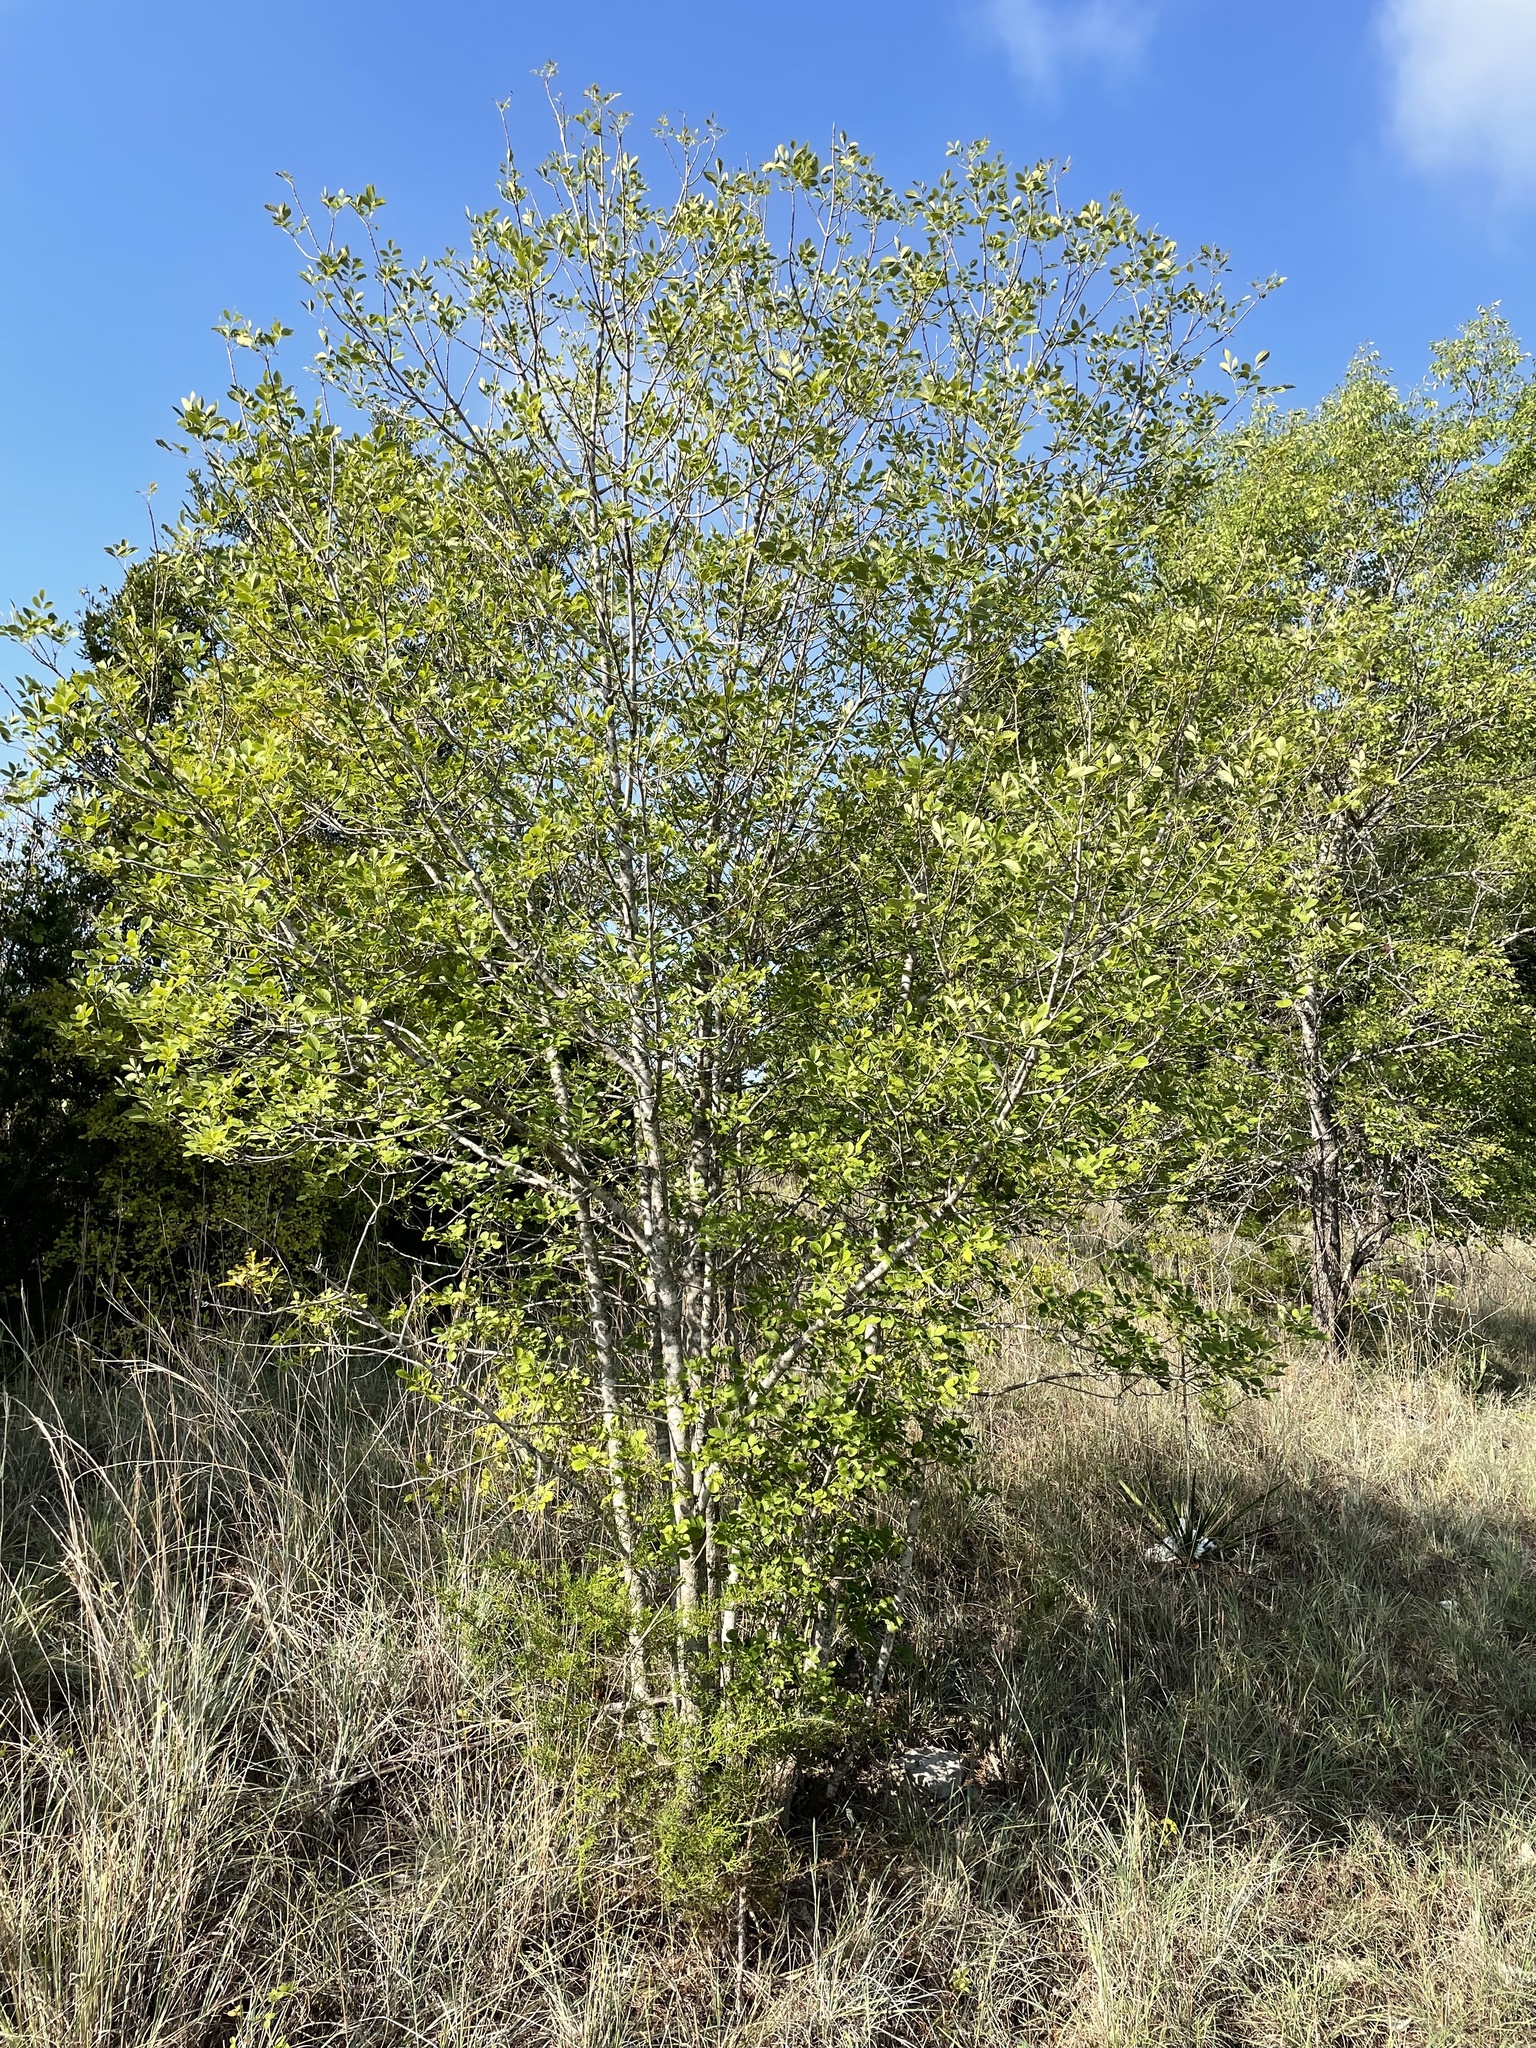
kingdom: Plantae
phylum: Tracheophyta
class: Magnoliopsida
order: Lamiales
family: Oleaceae
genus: Fraxinus
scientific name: Fraxinus albicans
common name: Texas ash
